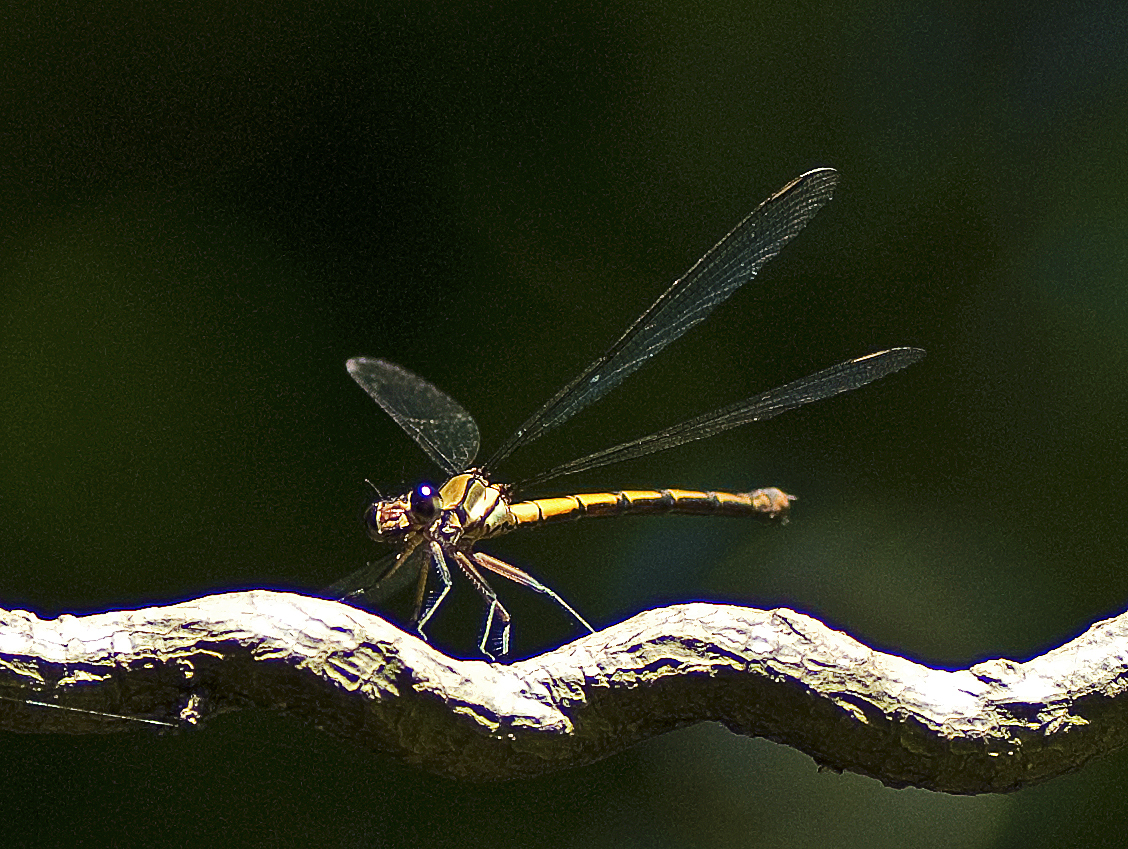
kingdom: Animalia
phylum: Arthropoda
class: Insecta
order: Odonata
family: Lestoideidae
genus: Diphlebia
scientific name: Diphlebia euphoeoides
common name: Tropical rockmaster
